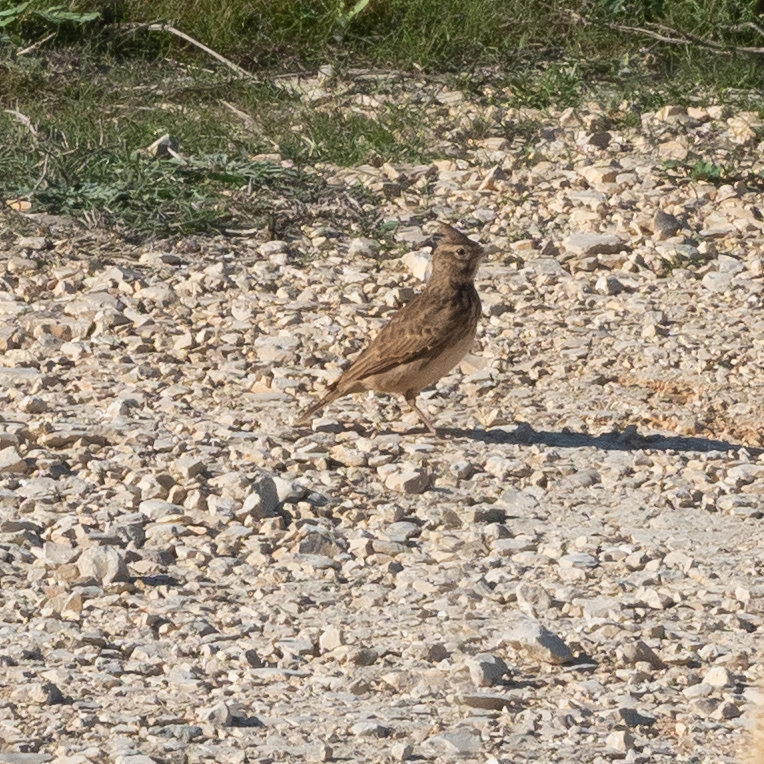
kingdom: Animalia
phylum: Chordata
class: Aves
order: Passeriformes
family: Alaudidae
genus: Galerida
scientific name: Galerida cristata
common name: Crested lark
